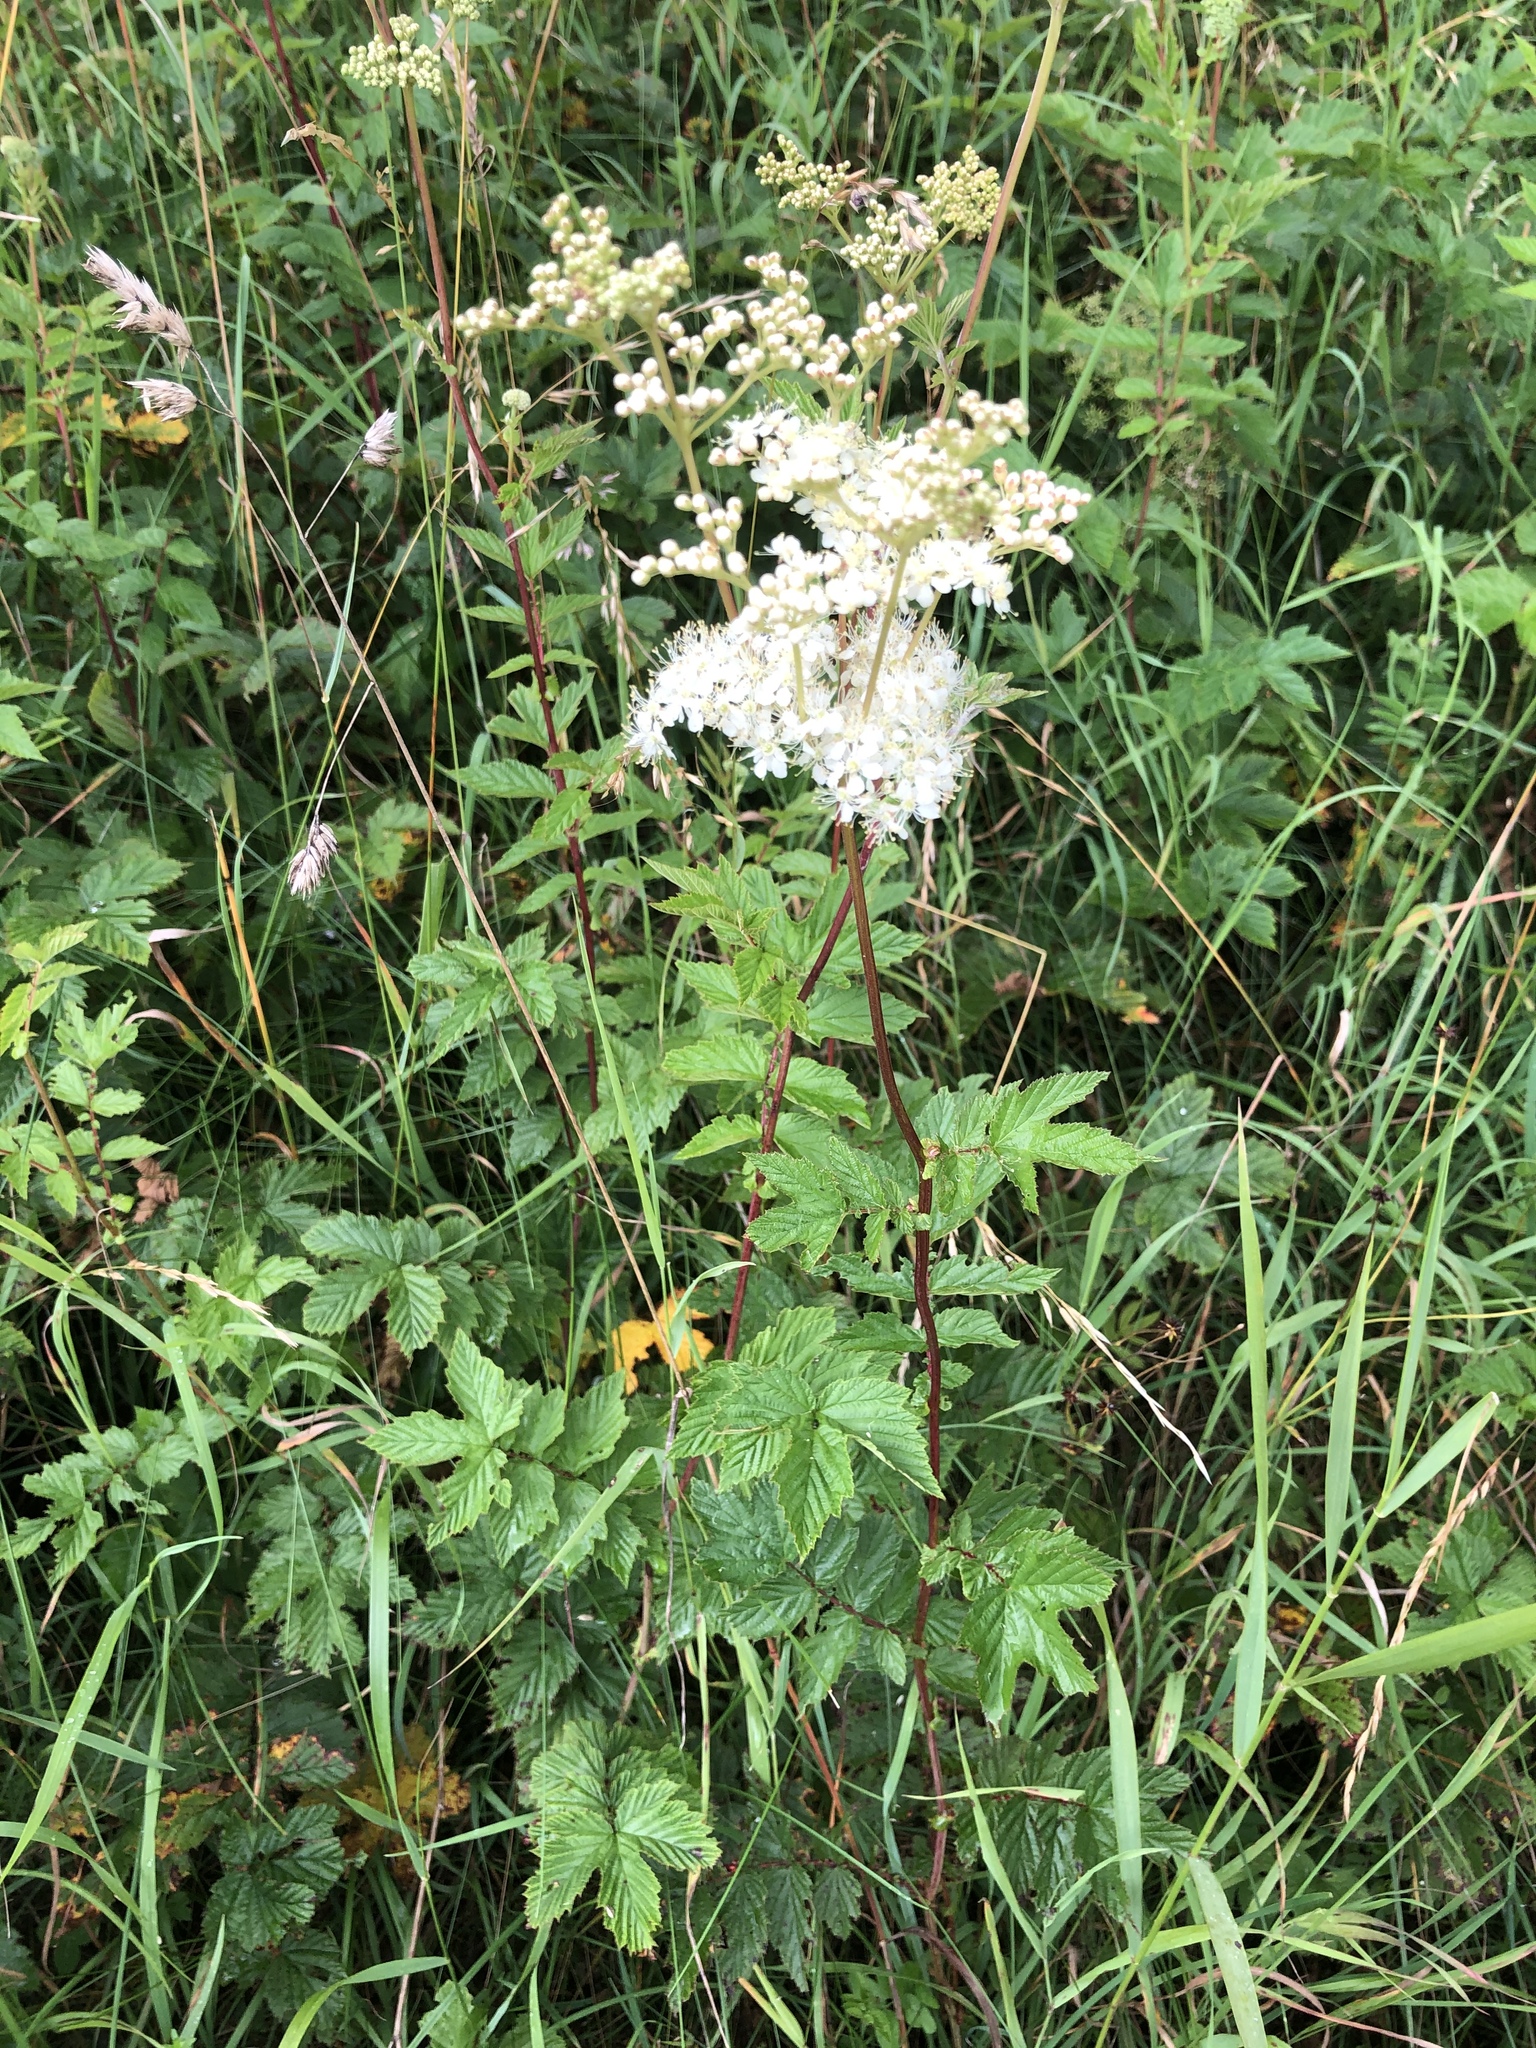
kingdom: Plantae
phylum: Tracheophyta
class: Magnoliopsida
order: Rosales
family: Rosaceae
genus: Filipendula
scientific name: Filipendula ulmaria
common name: Meadowsweet
